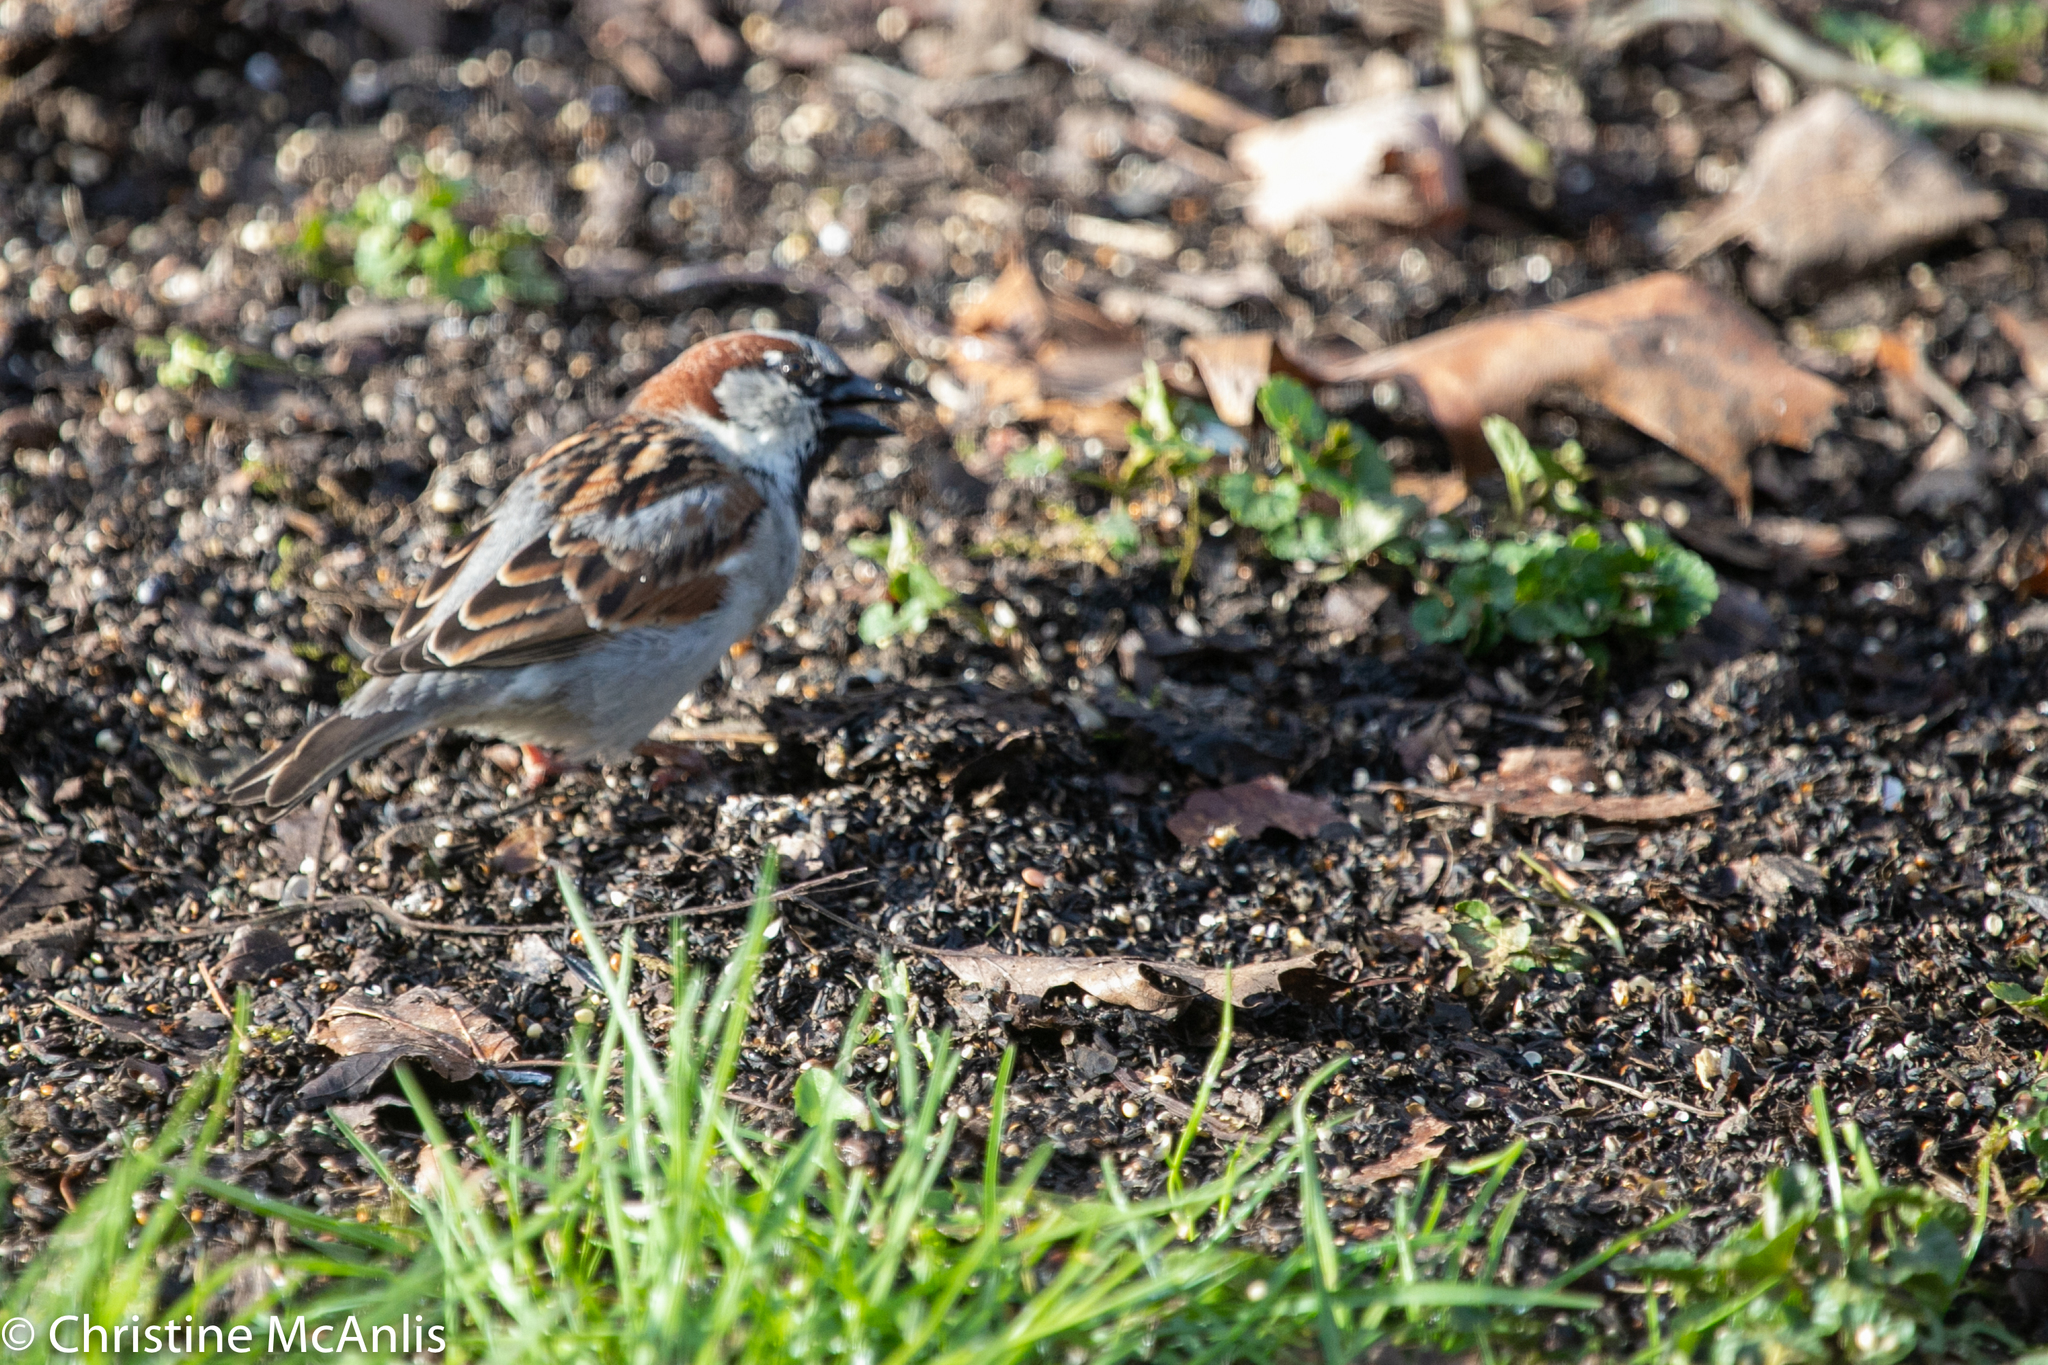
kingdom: Animalia
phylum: Chordata
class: Aves
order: Passeriformes
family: Passeridae
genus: Passer
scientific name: Passer domesticus
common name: House sparrow
